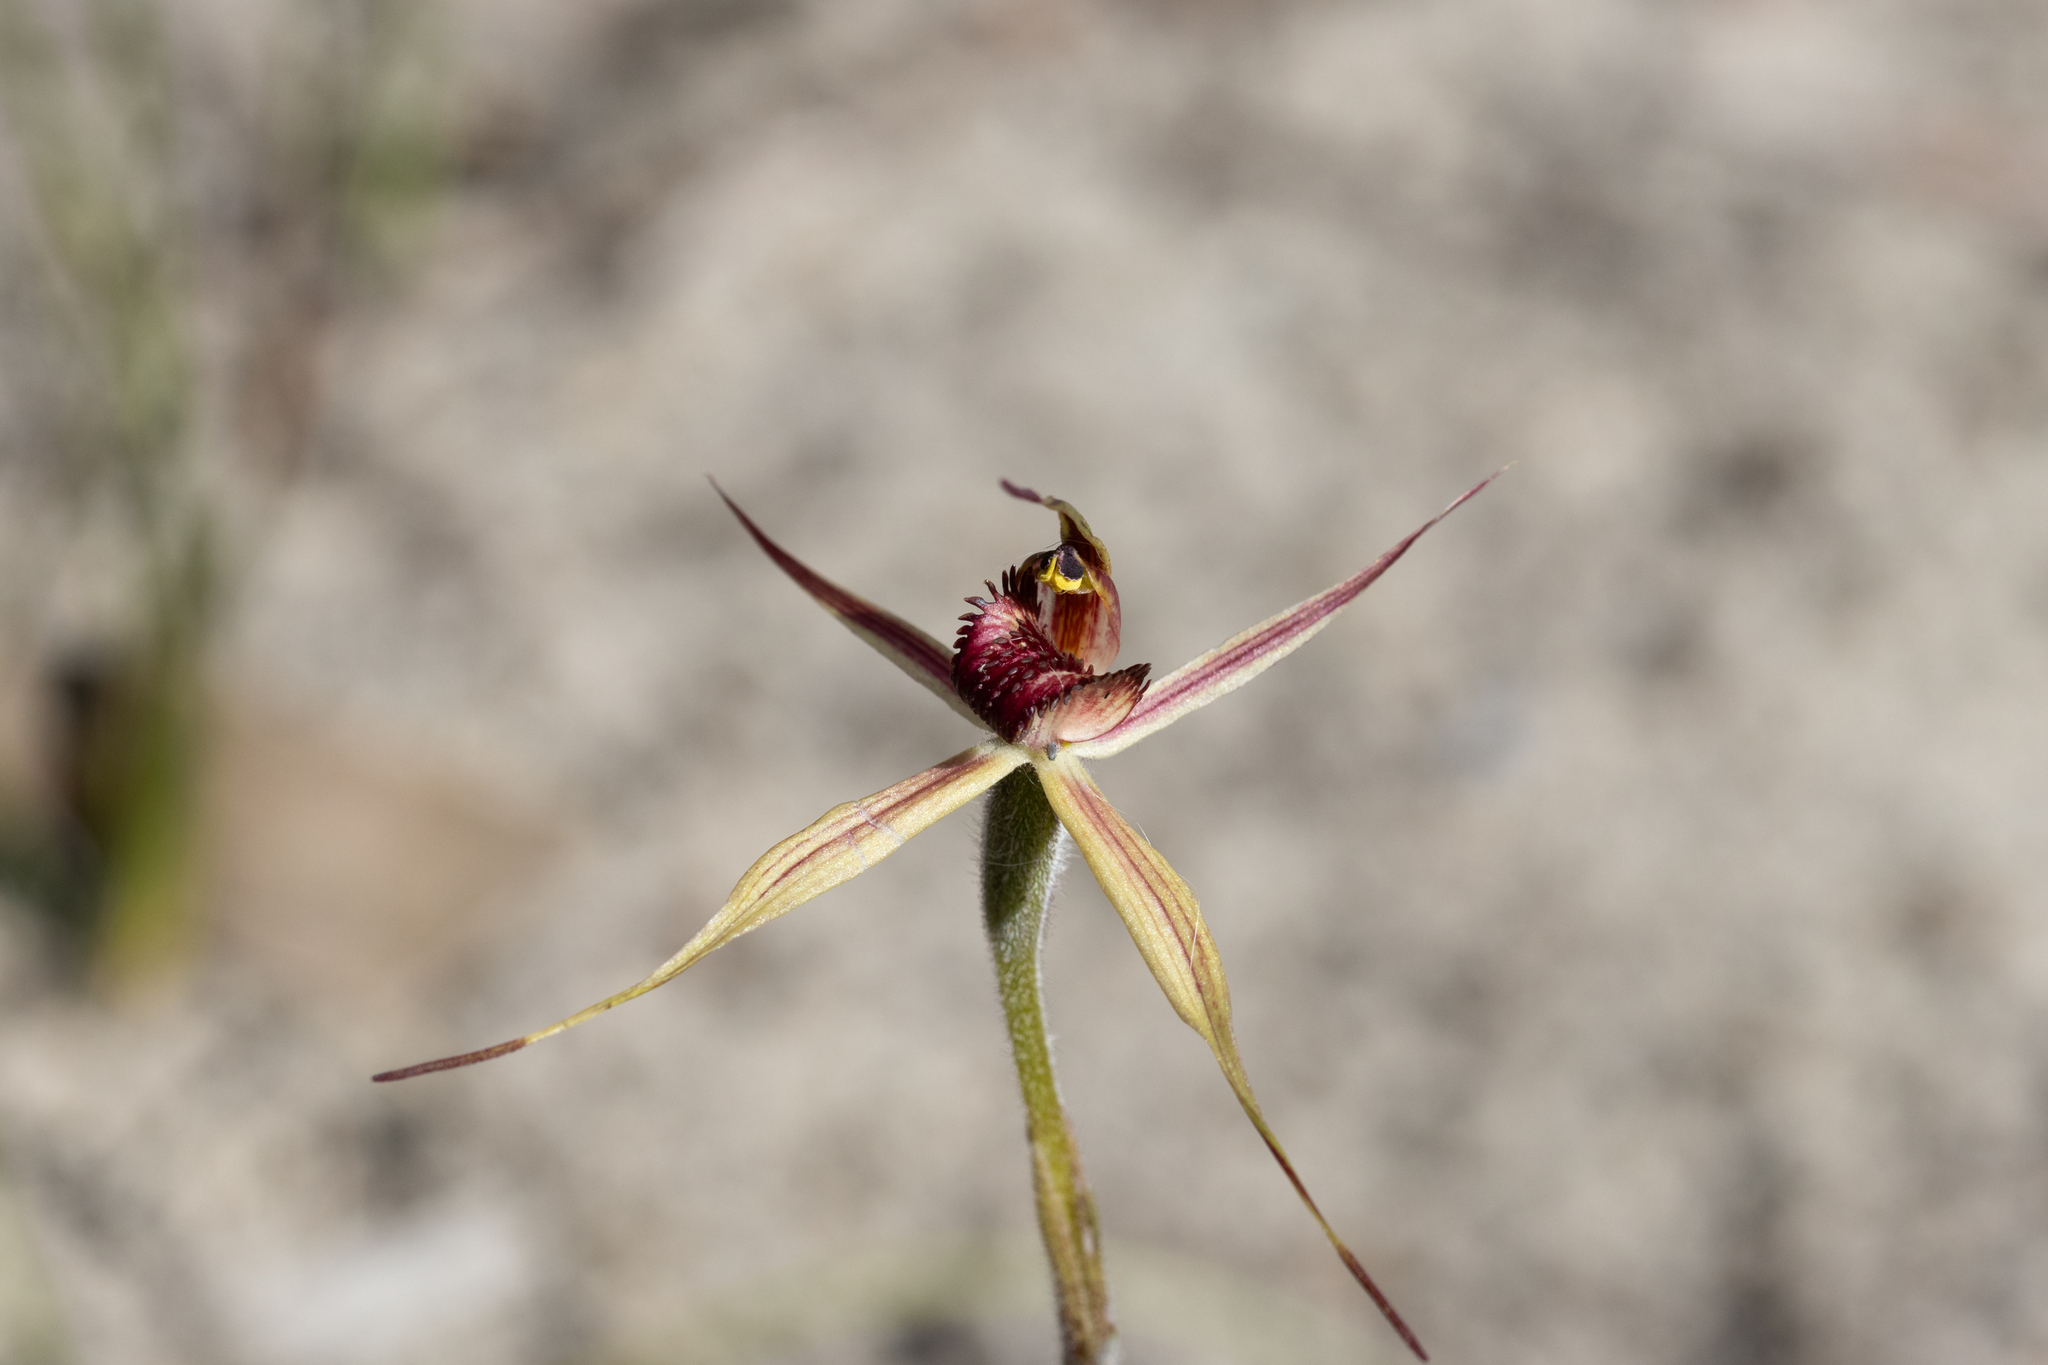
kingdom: Plantae
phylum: Tracheophyta
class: Liliopsida
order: Asparagales
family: Orchidaceae
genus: Caladenia
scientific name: Caladenia reticulata
